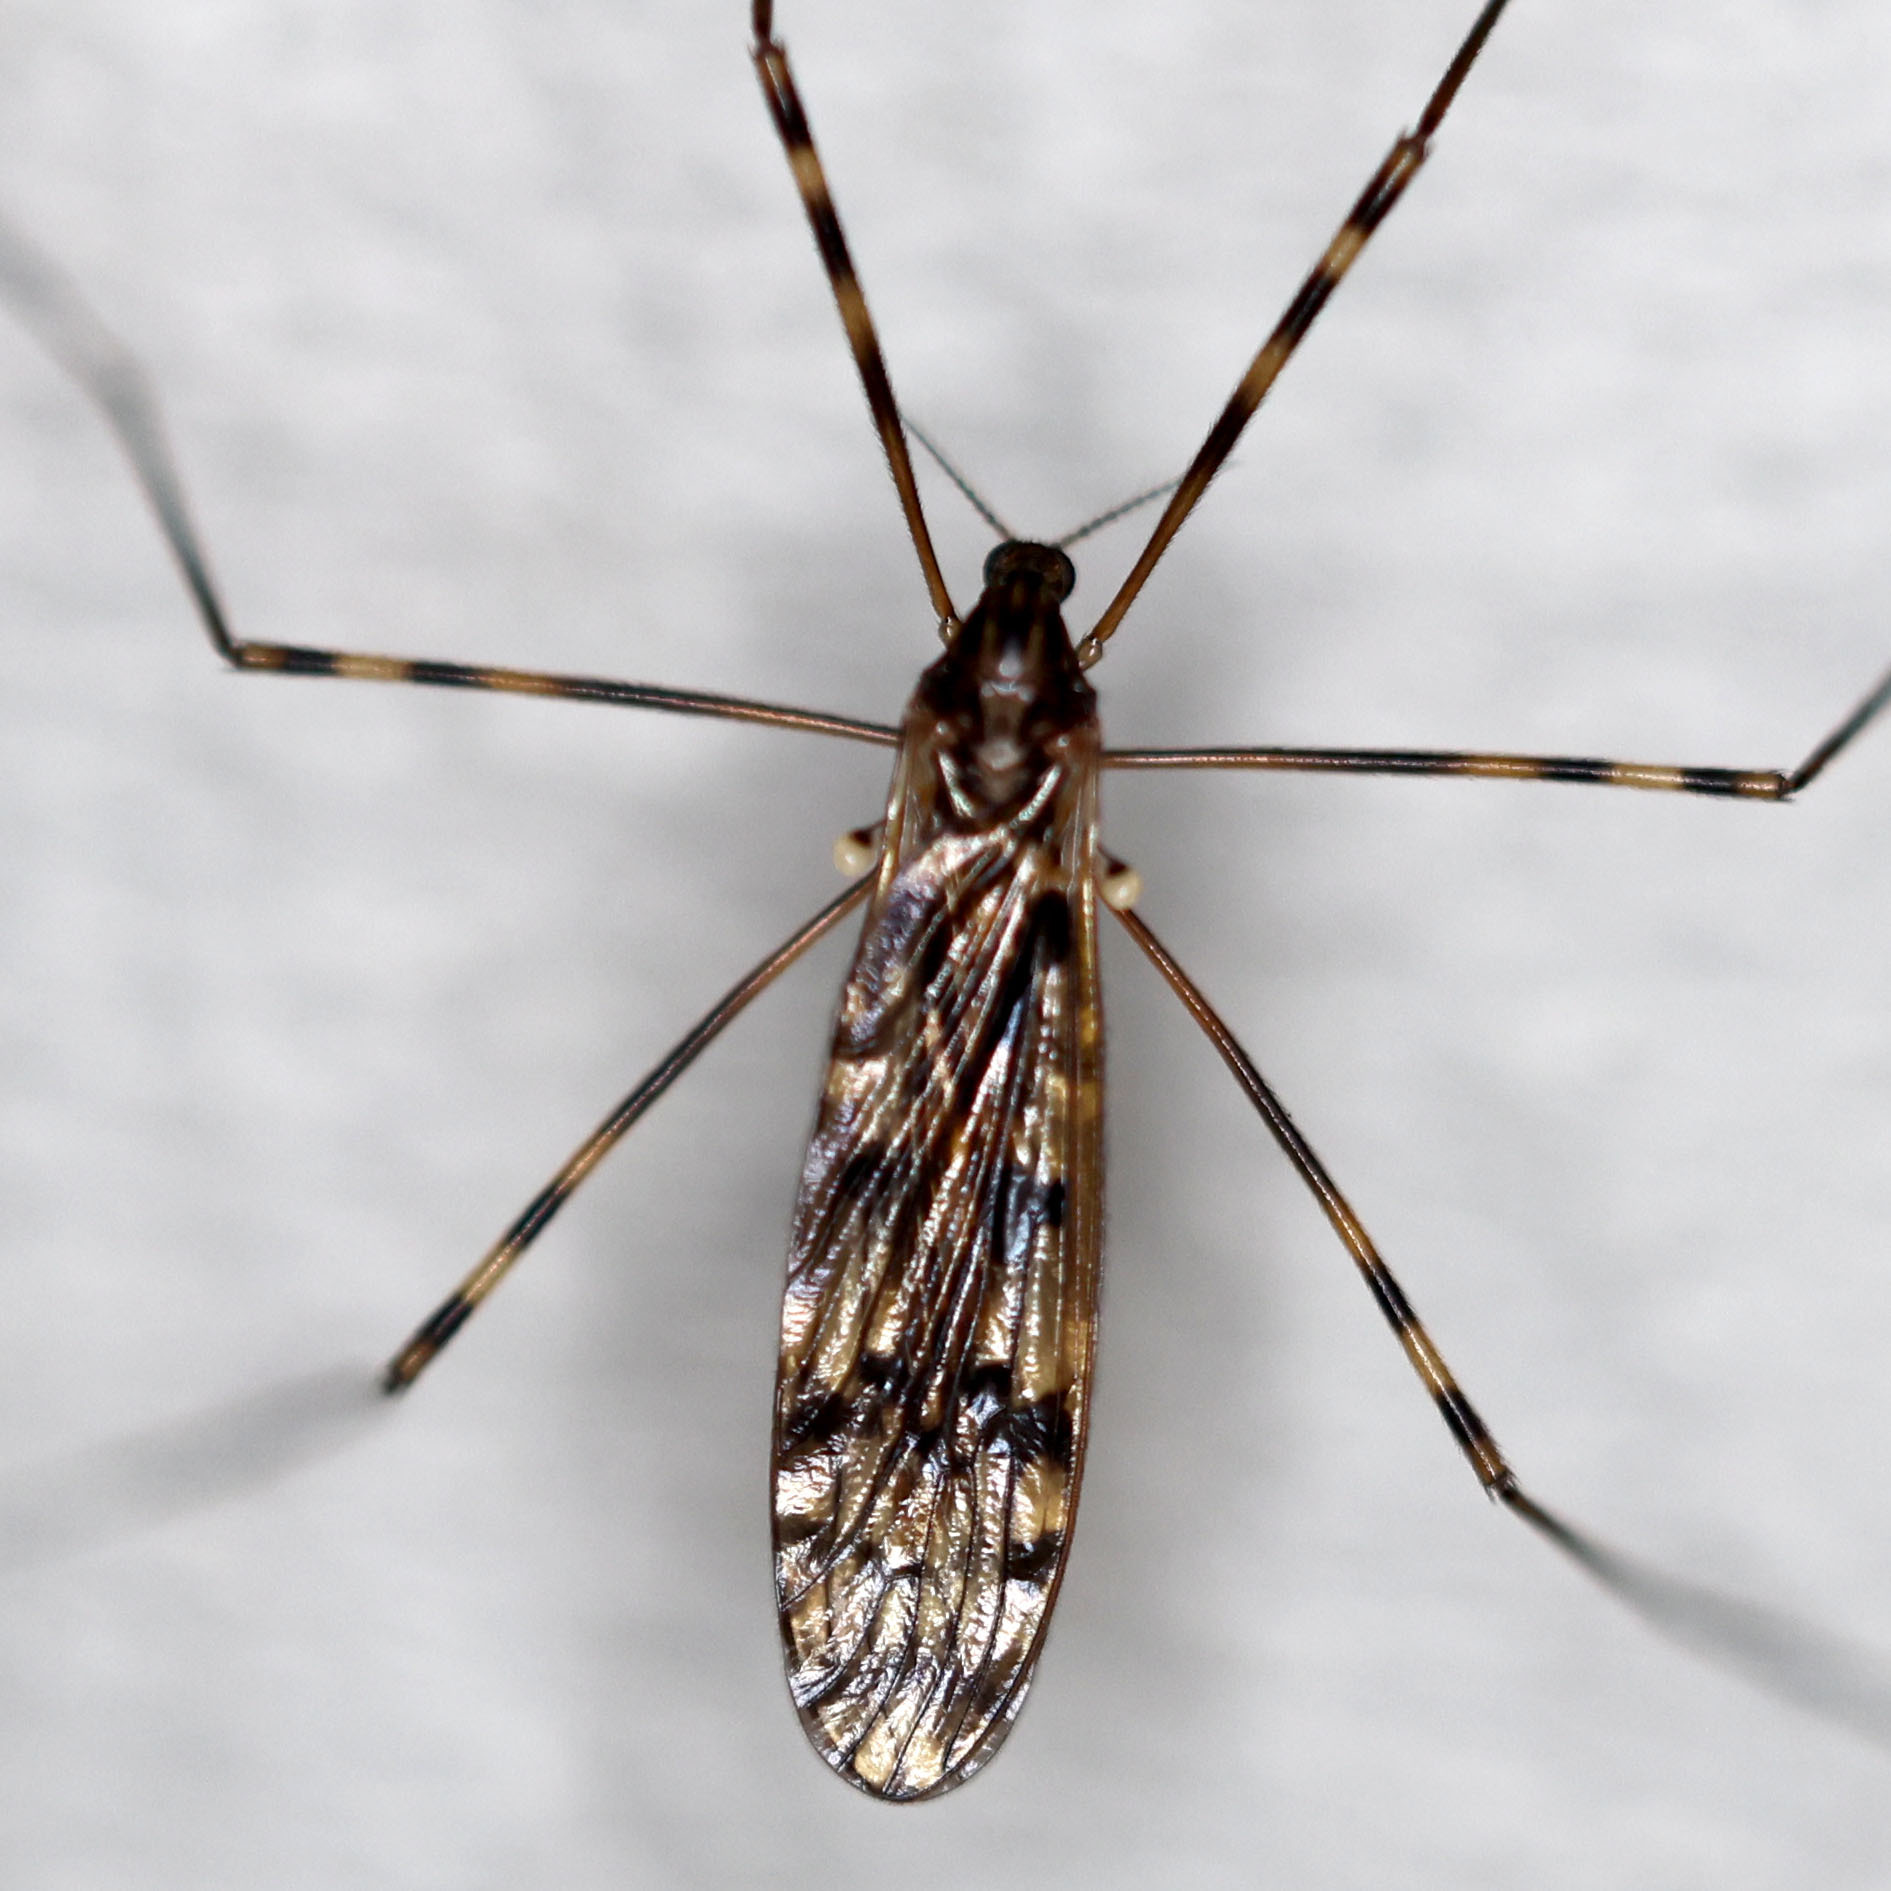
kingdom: Animalia
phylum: Arthropoda
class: Insecta
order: Diptera
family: Limoniidae
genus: Metalimnobia
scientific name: Metalimnobia immatura
